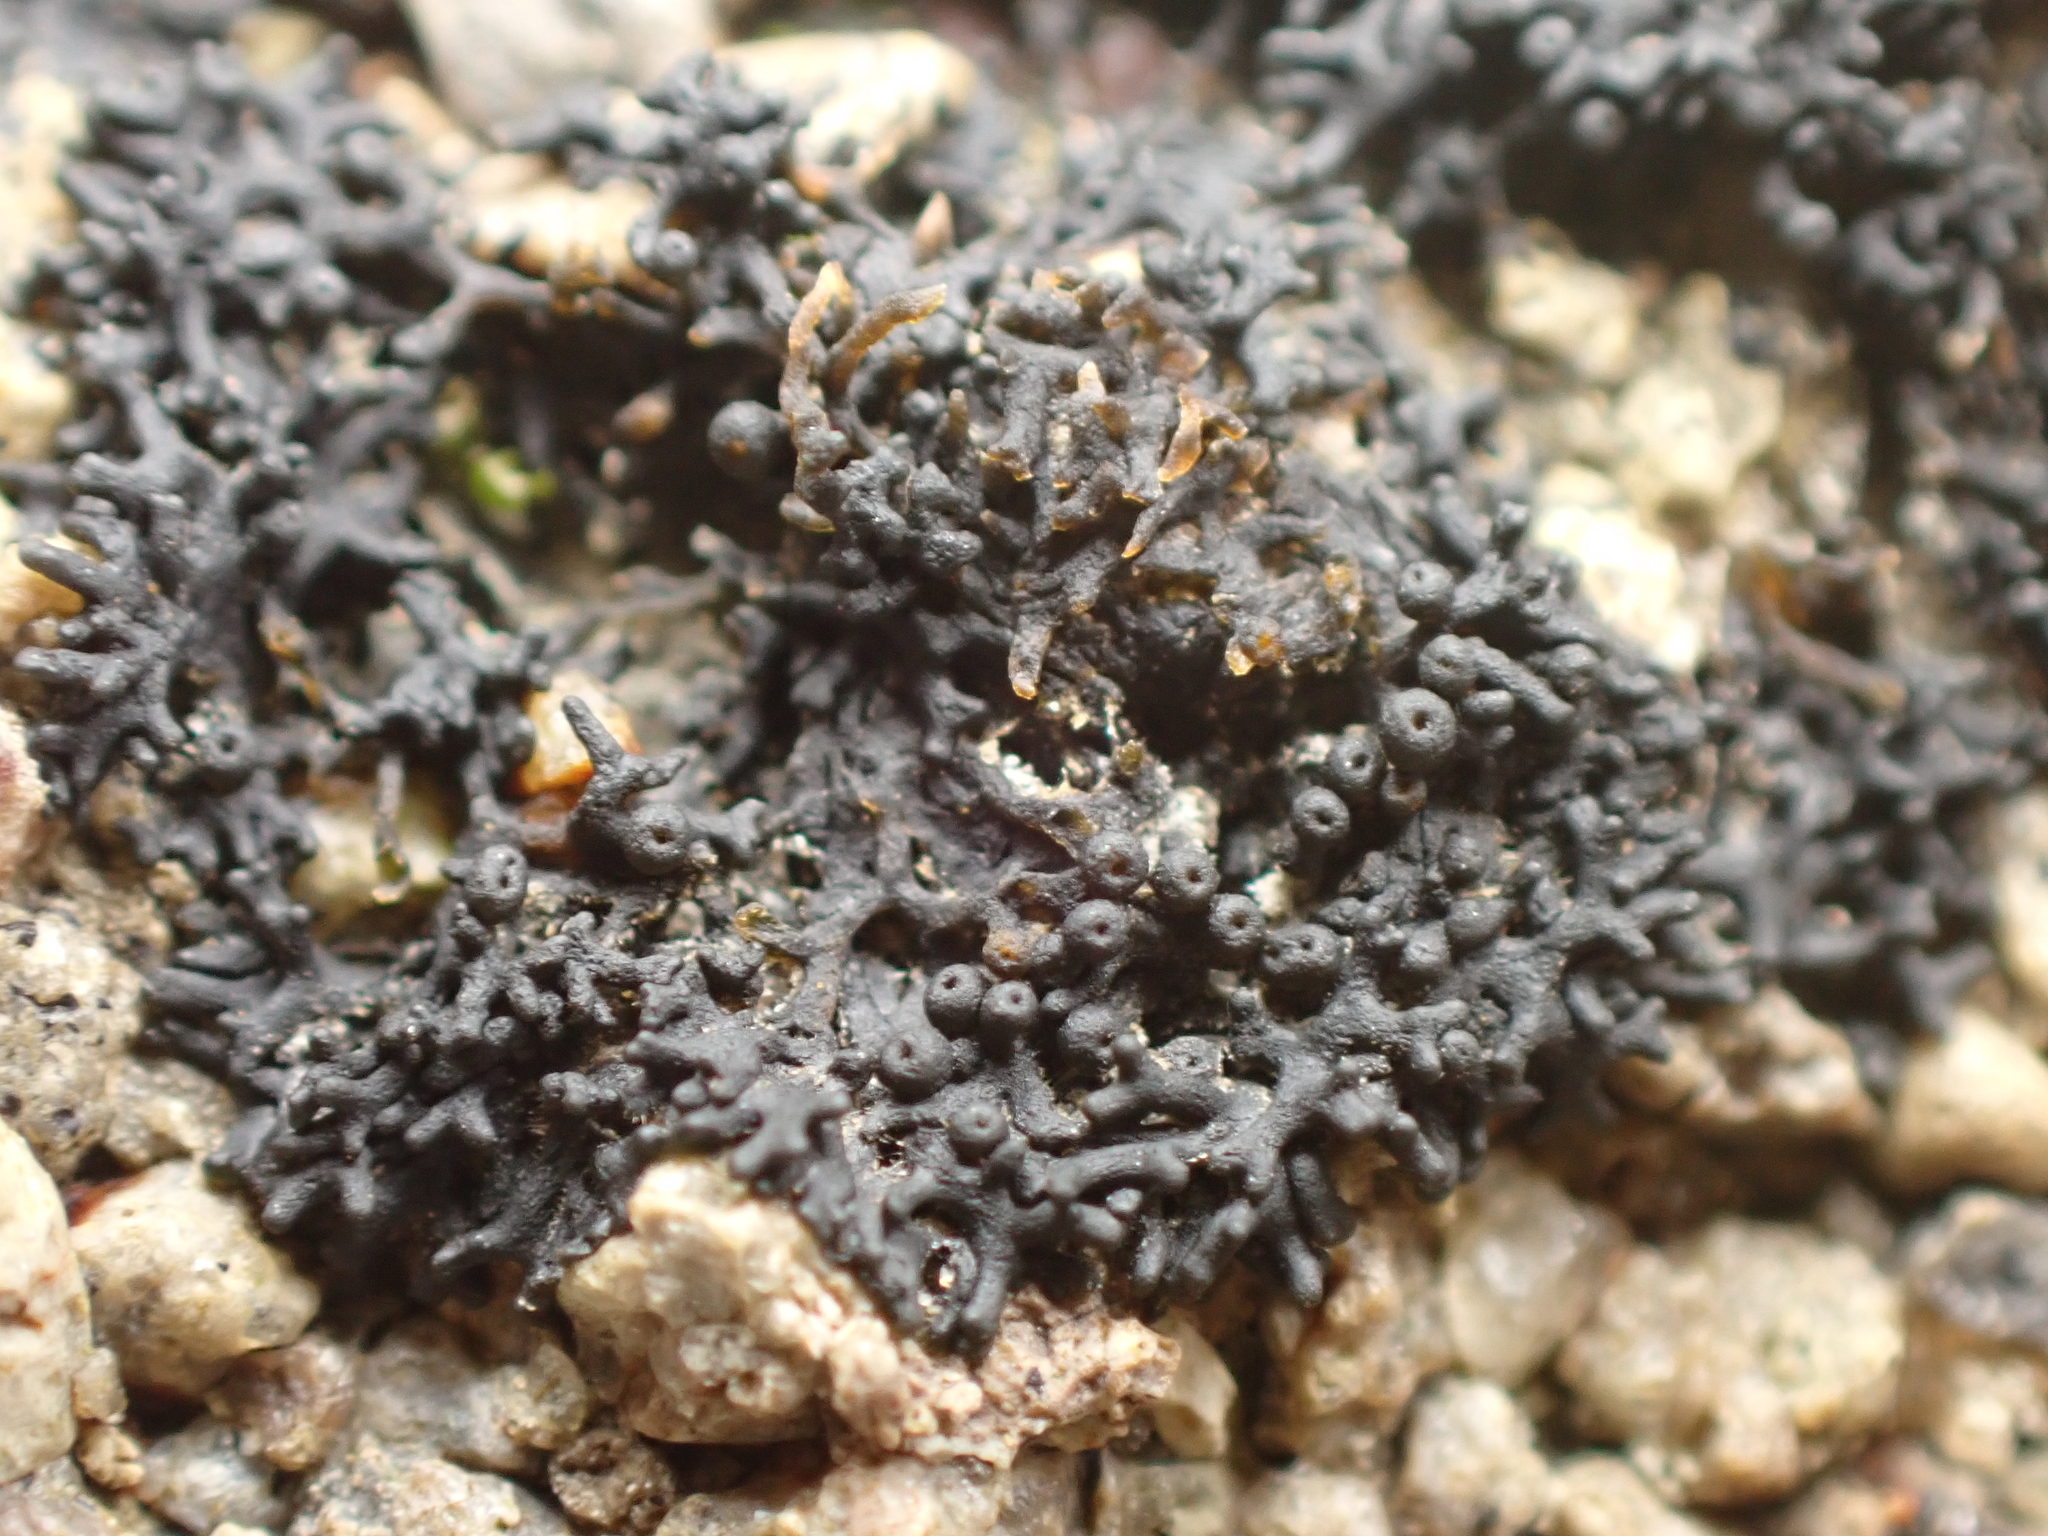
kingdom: Fungi
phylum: Ascomycota
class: Lichinomycetes
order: Lichinales
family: Lichinaceae
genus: Lichina
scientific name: Lichina intermedia
